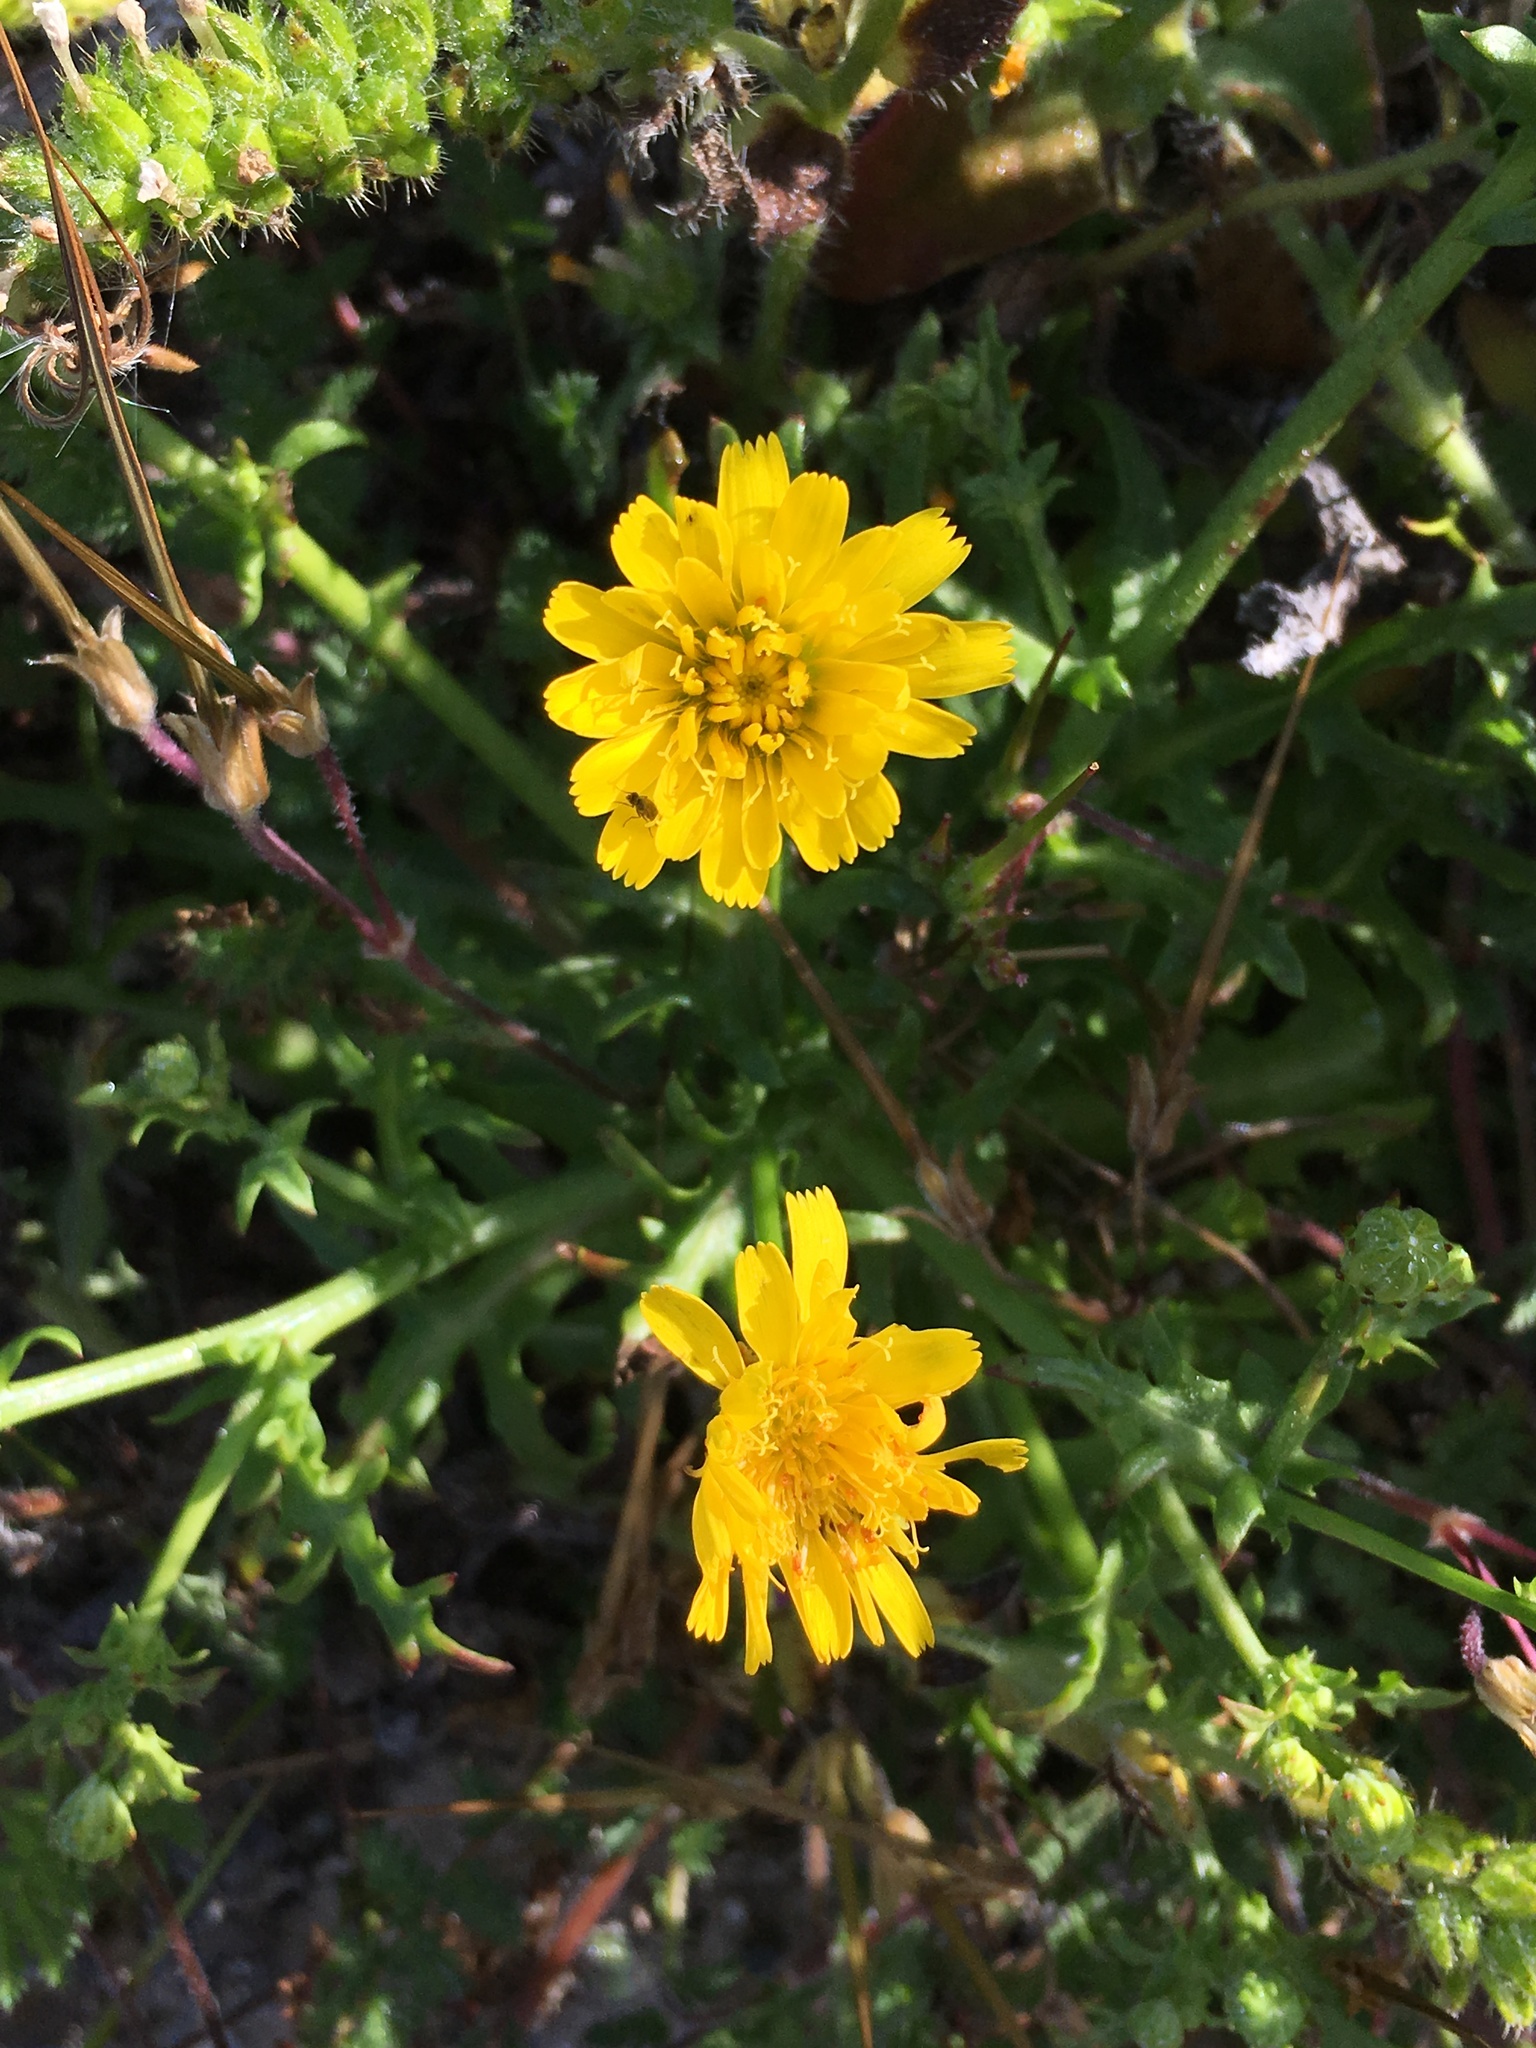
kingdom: Plantae
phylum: Tracheophyta
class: Magnoliopsida
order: Asterales
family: Asteraceae
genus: Malacothrix
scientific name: Malacothrix foliosa
